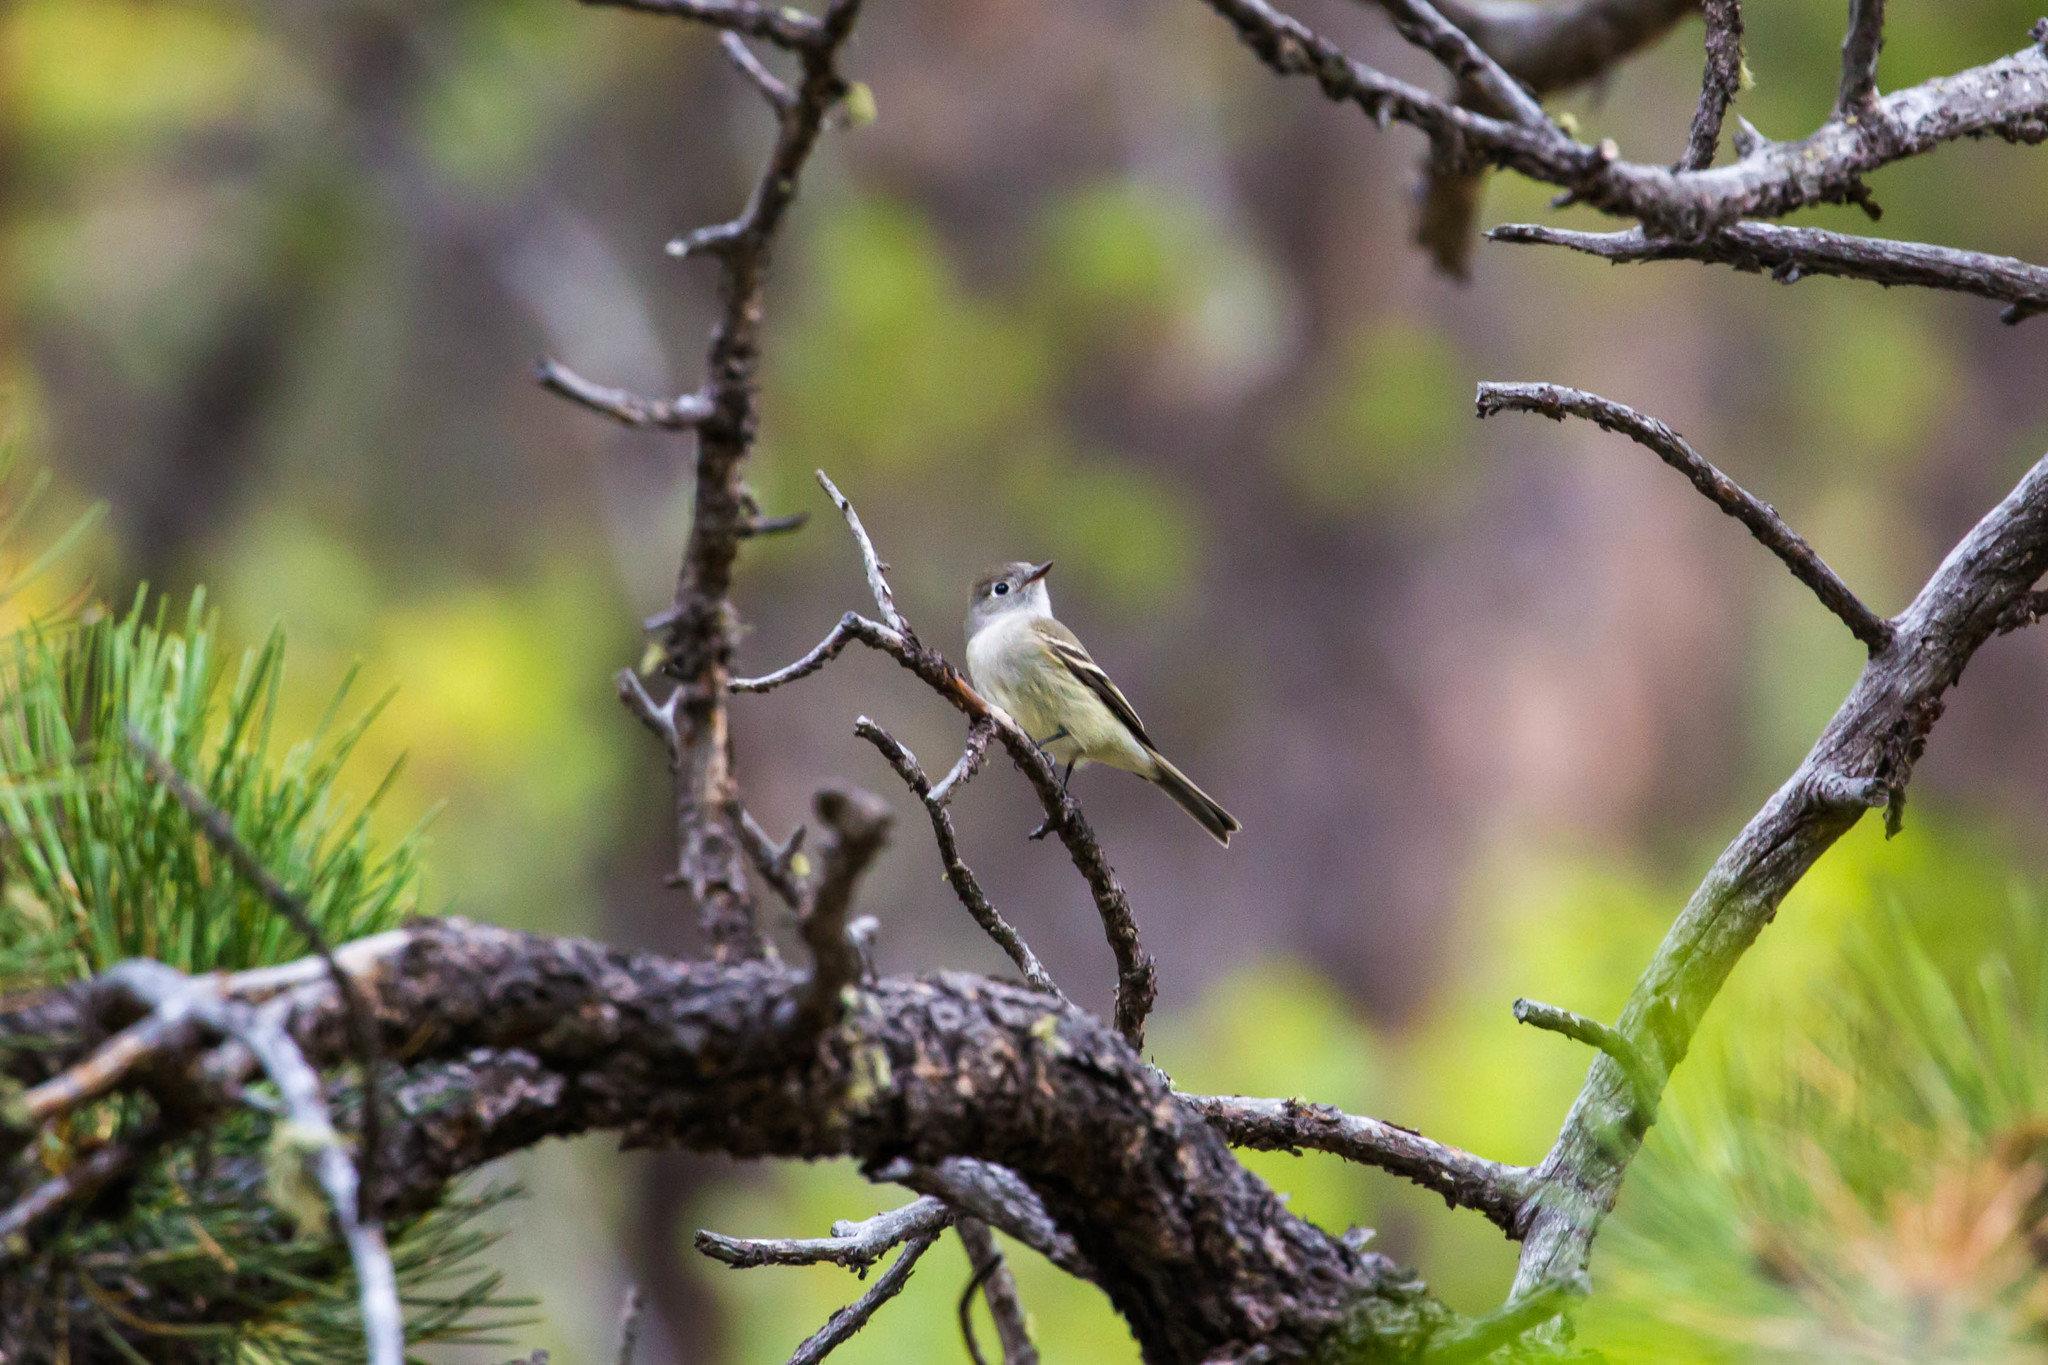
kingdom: Animalia
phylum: Chordata
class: Aves
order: Passeriformes
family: Tyrannidae
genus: Empidonax
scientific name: Empidonax hammondii
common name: Hammond's flycatcher
